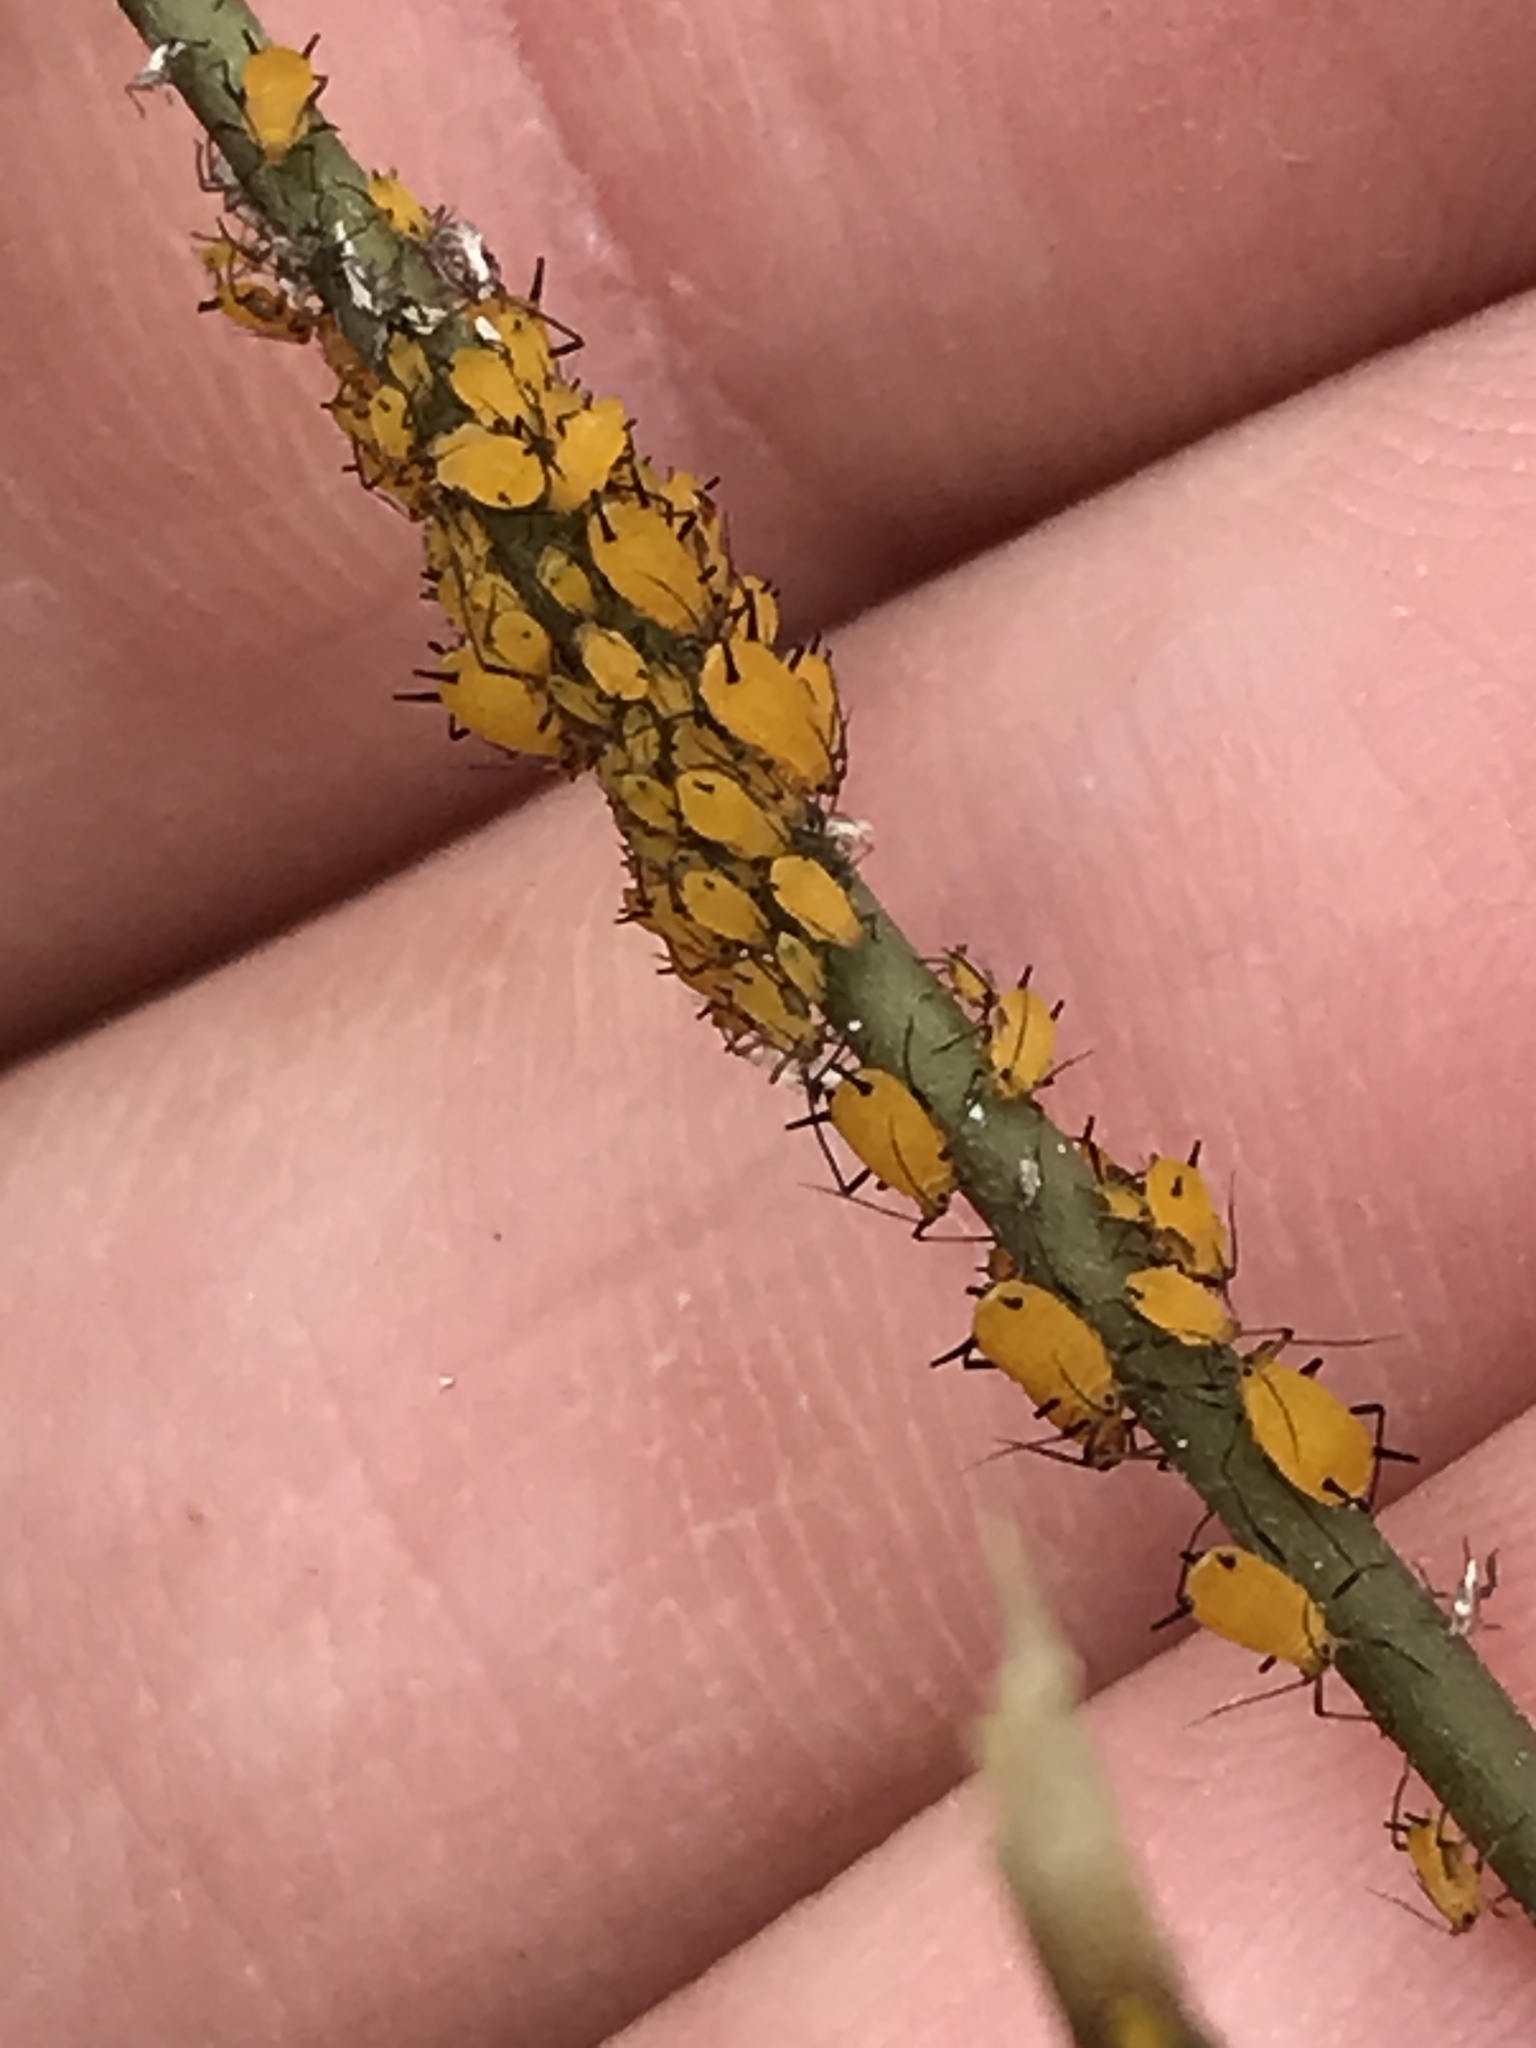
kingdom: Animalia
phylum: Arthropoda
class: Insecta
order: Hemiptera
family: Aphididae
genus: Aphis
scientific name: Aphis nerii
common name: Oleander aphid
